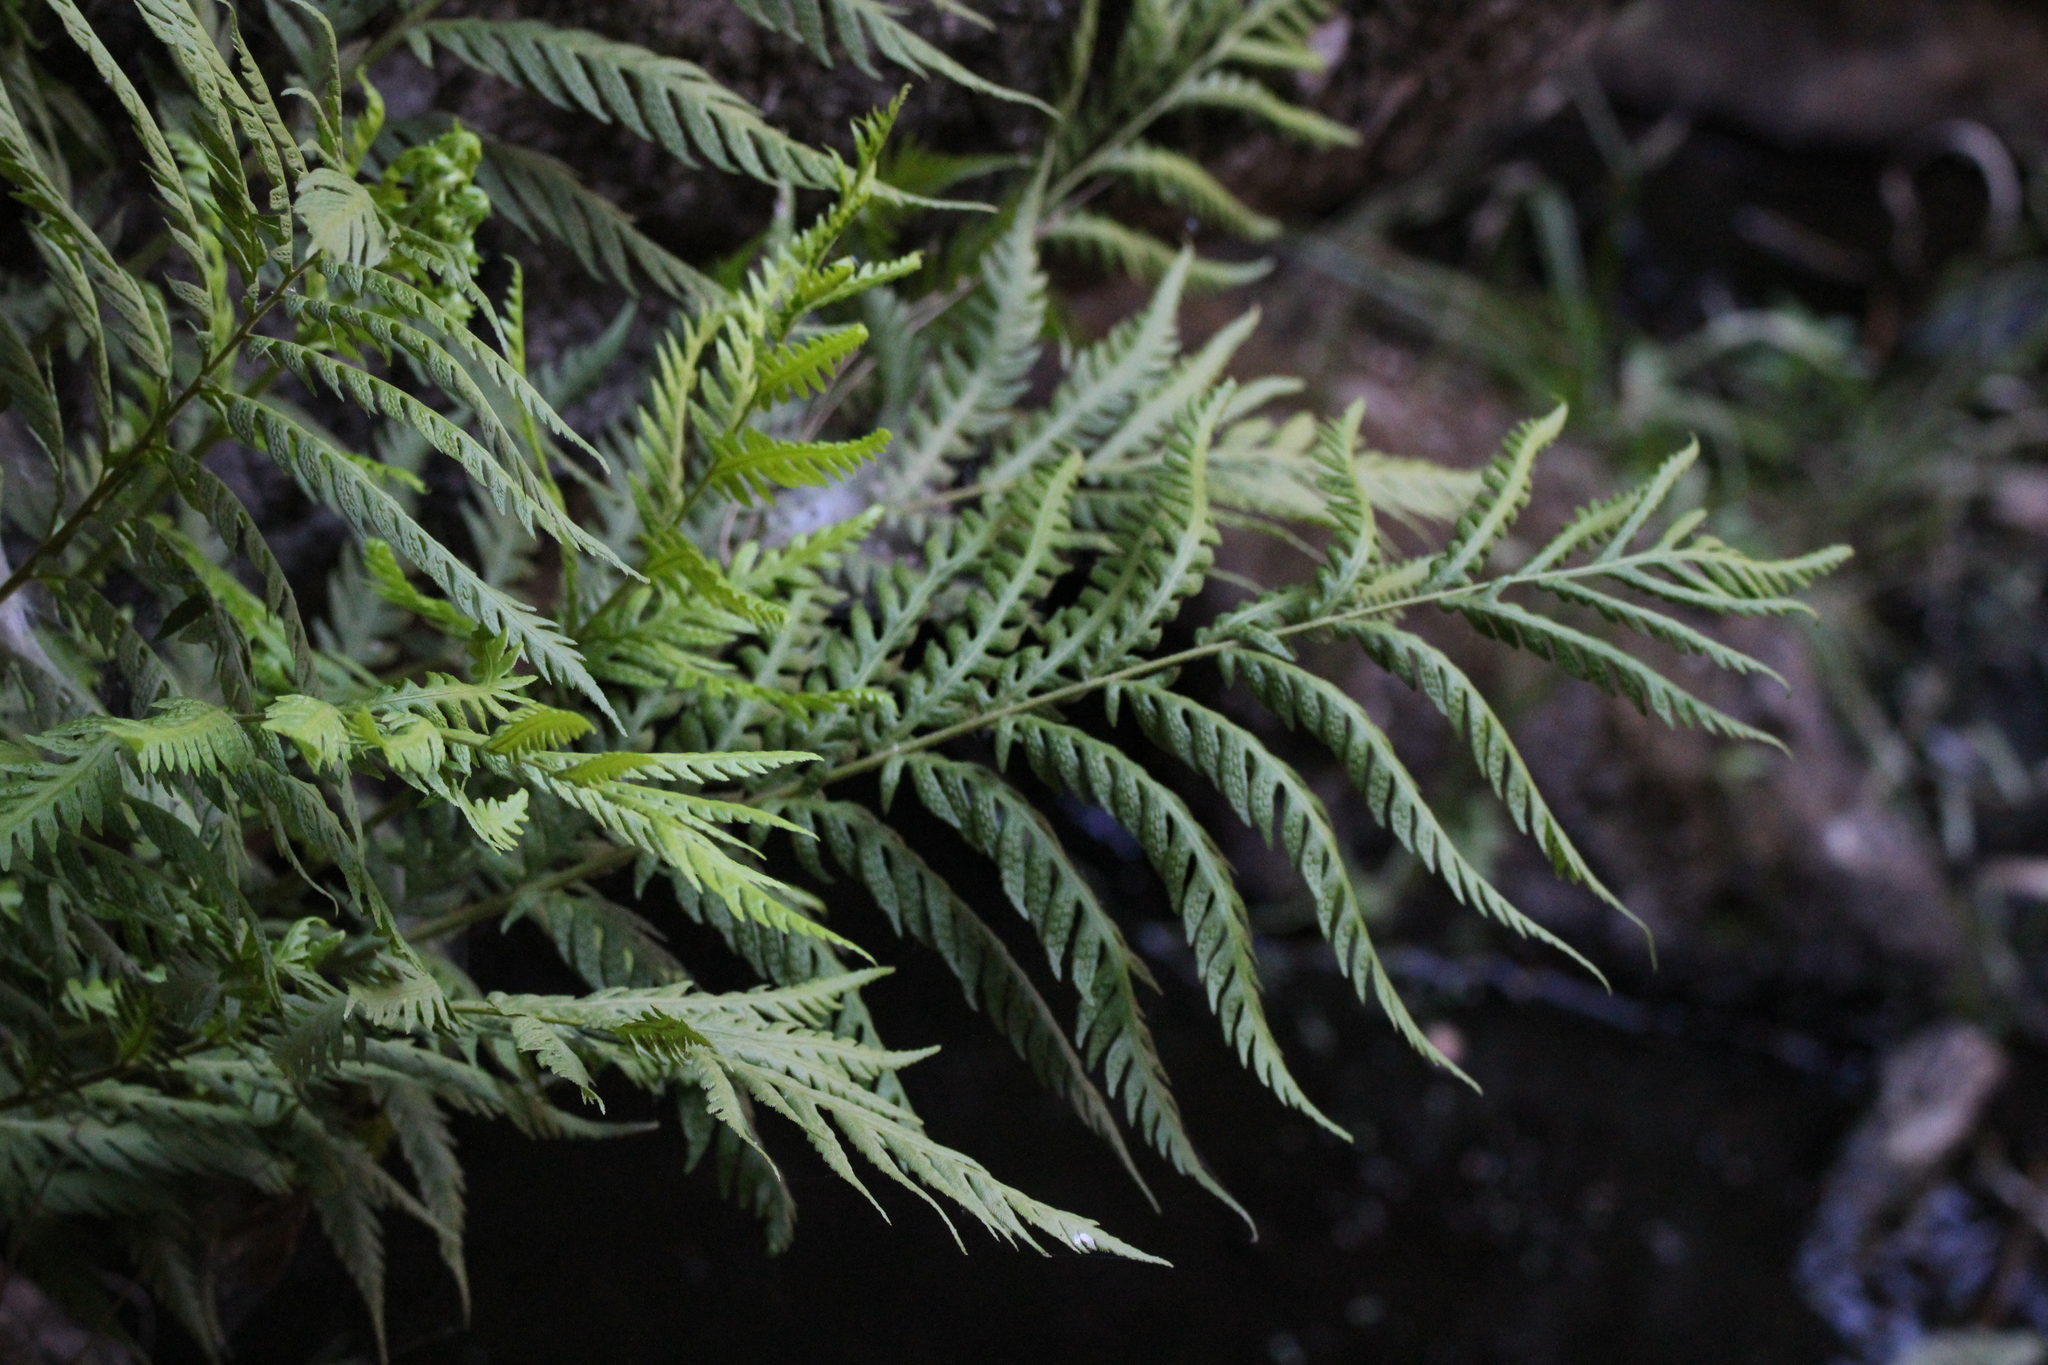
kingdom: Plantae
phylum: Tracheophyta
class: Polypodiopsida
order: Polypodiales
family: Blechnaceae
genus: Woodwardia
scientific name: Woodwardia fimbriata
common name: Giant chain fern
